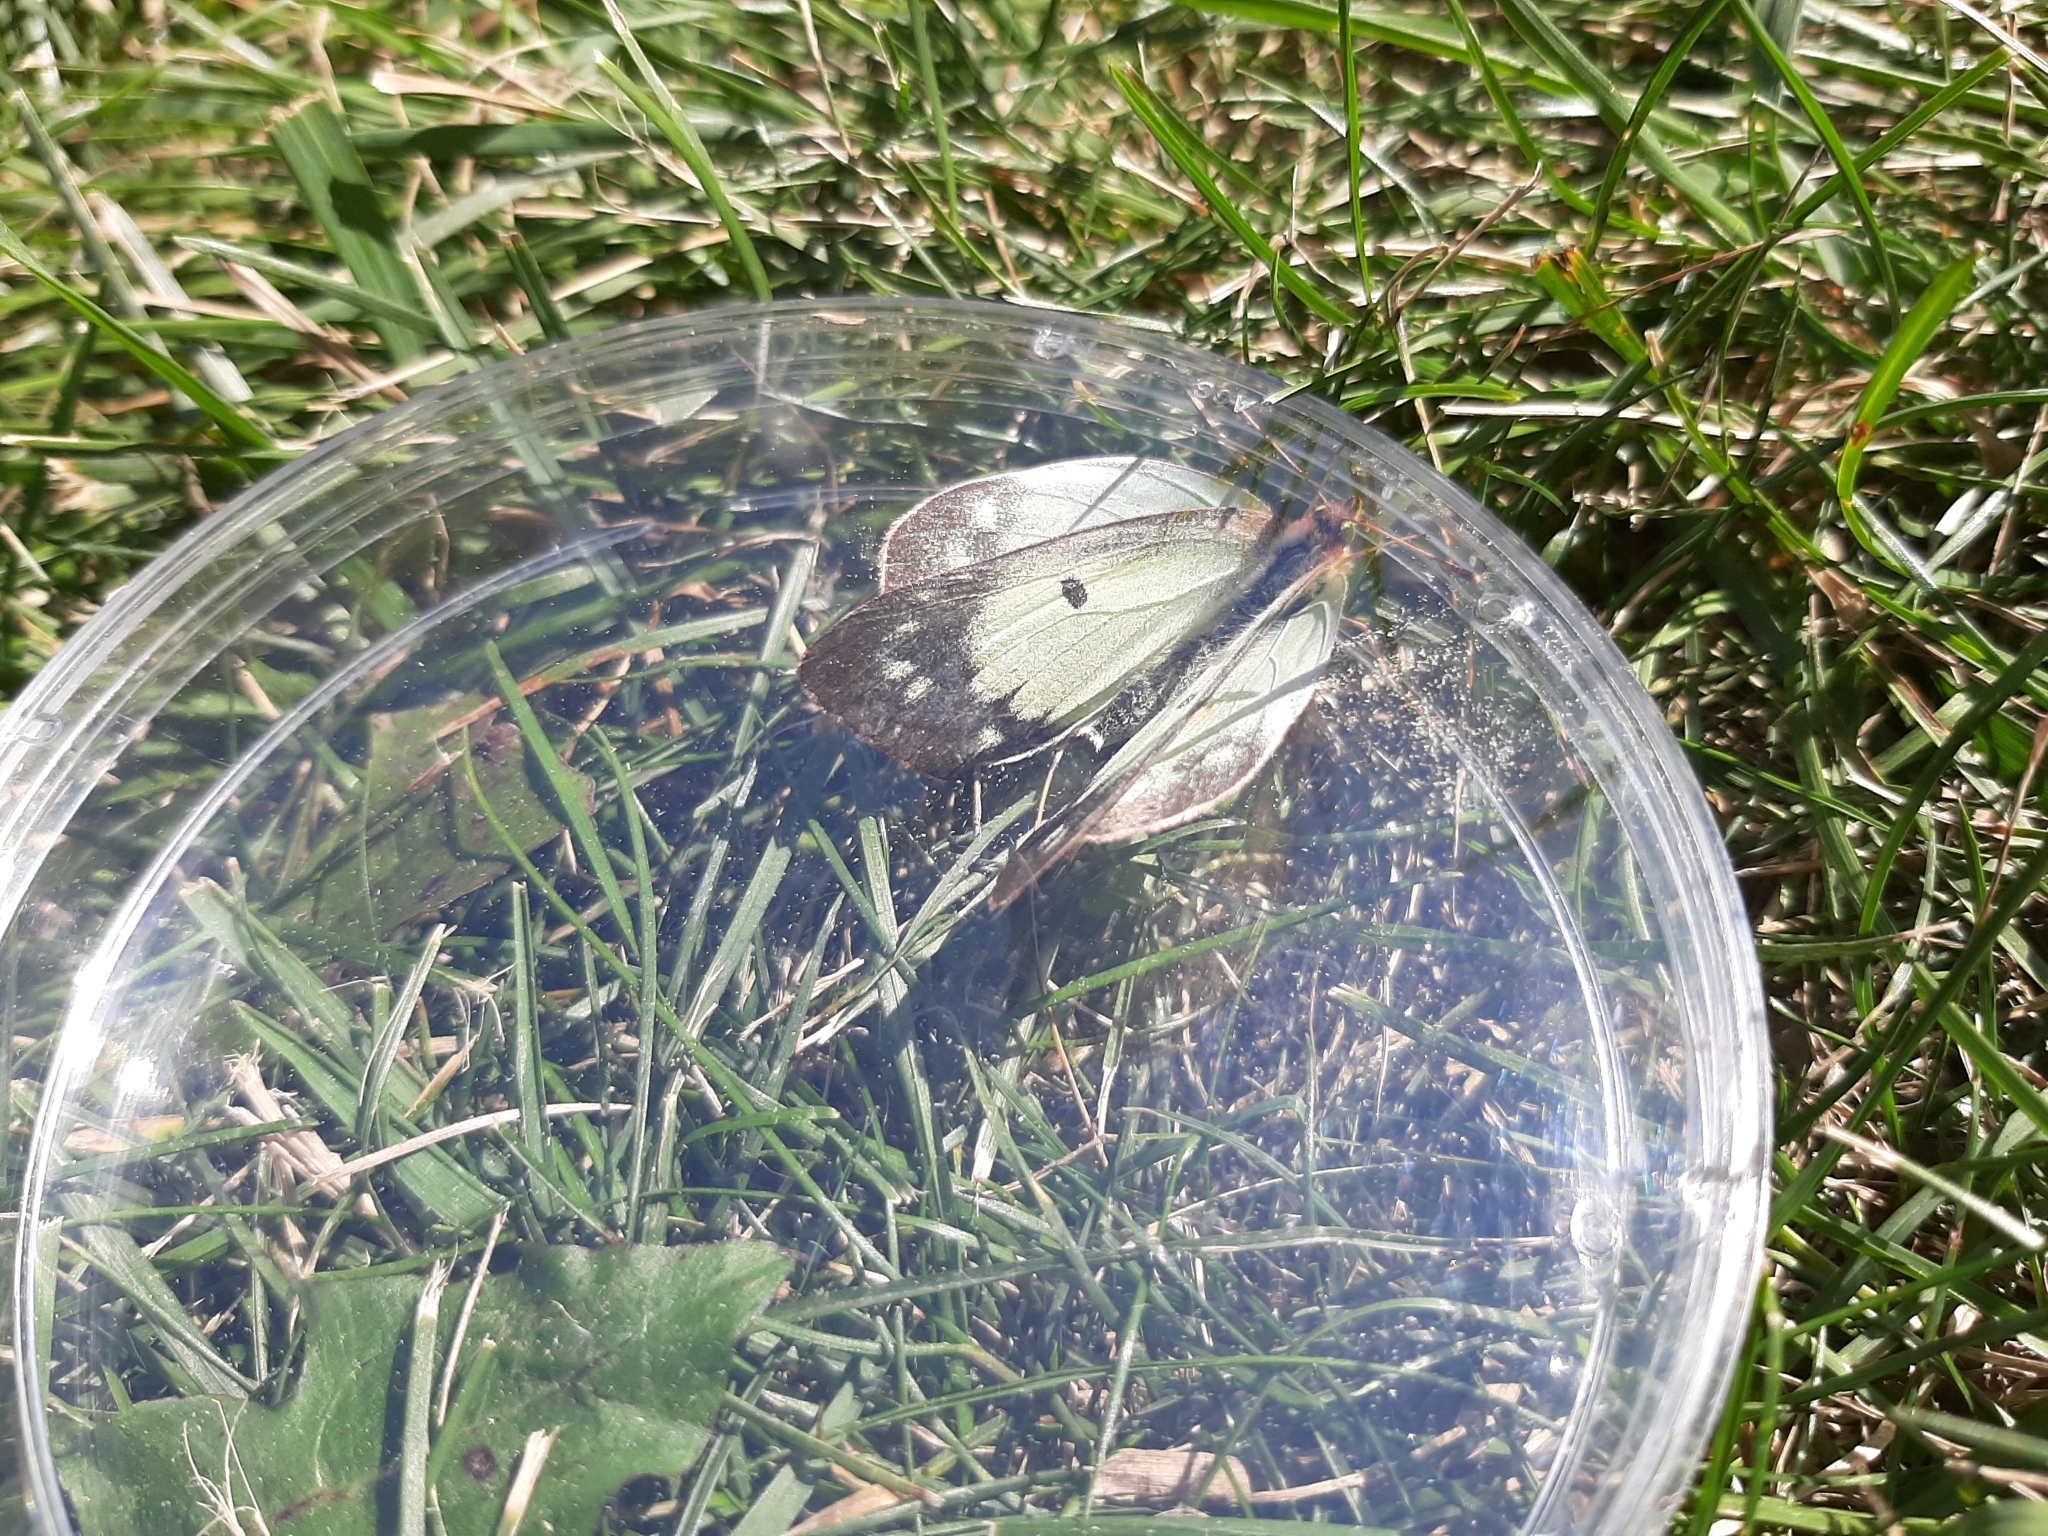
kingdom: Animalia
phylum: Arthropoda
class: Insecta
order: Lepidoptera
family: Pieridae
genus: Colias
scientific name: Colias philodice
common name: Clouded sulphur
